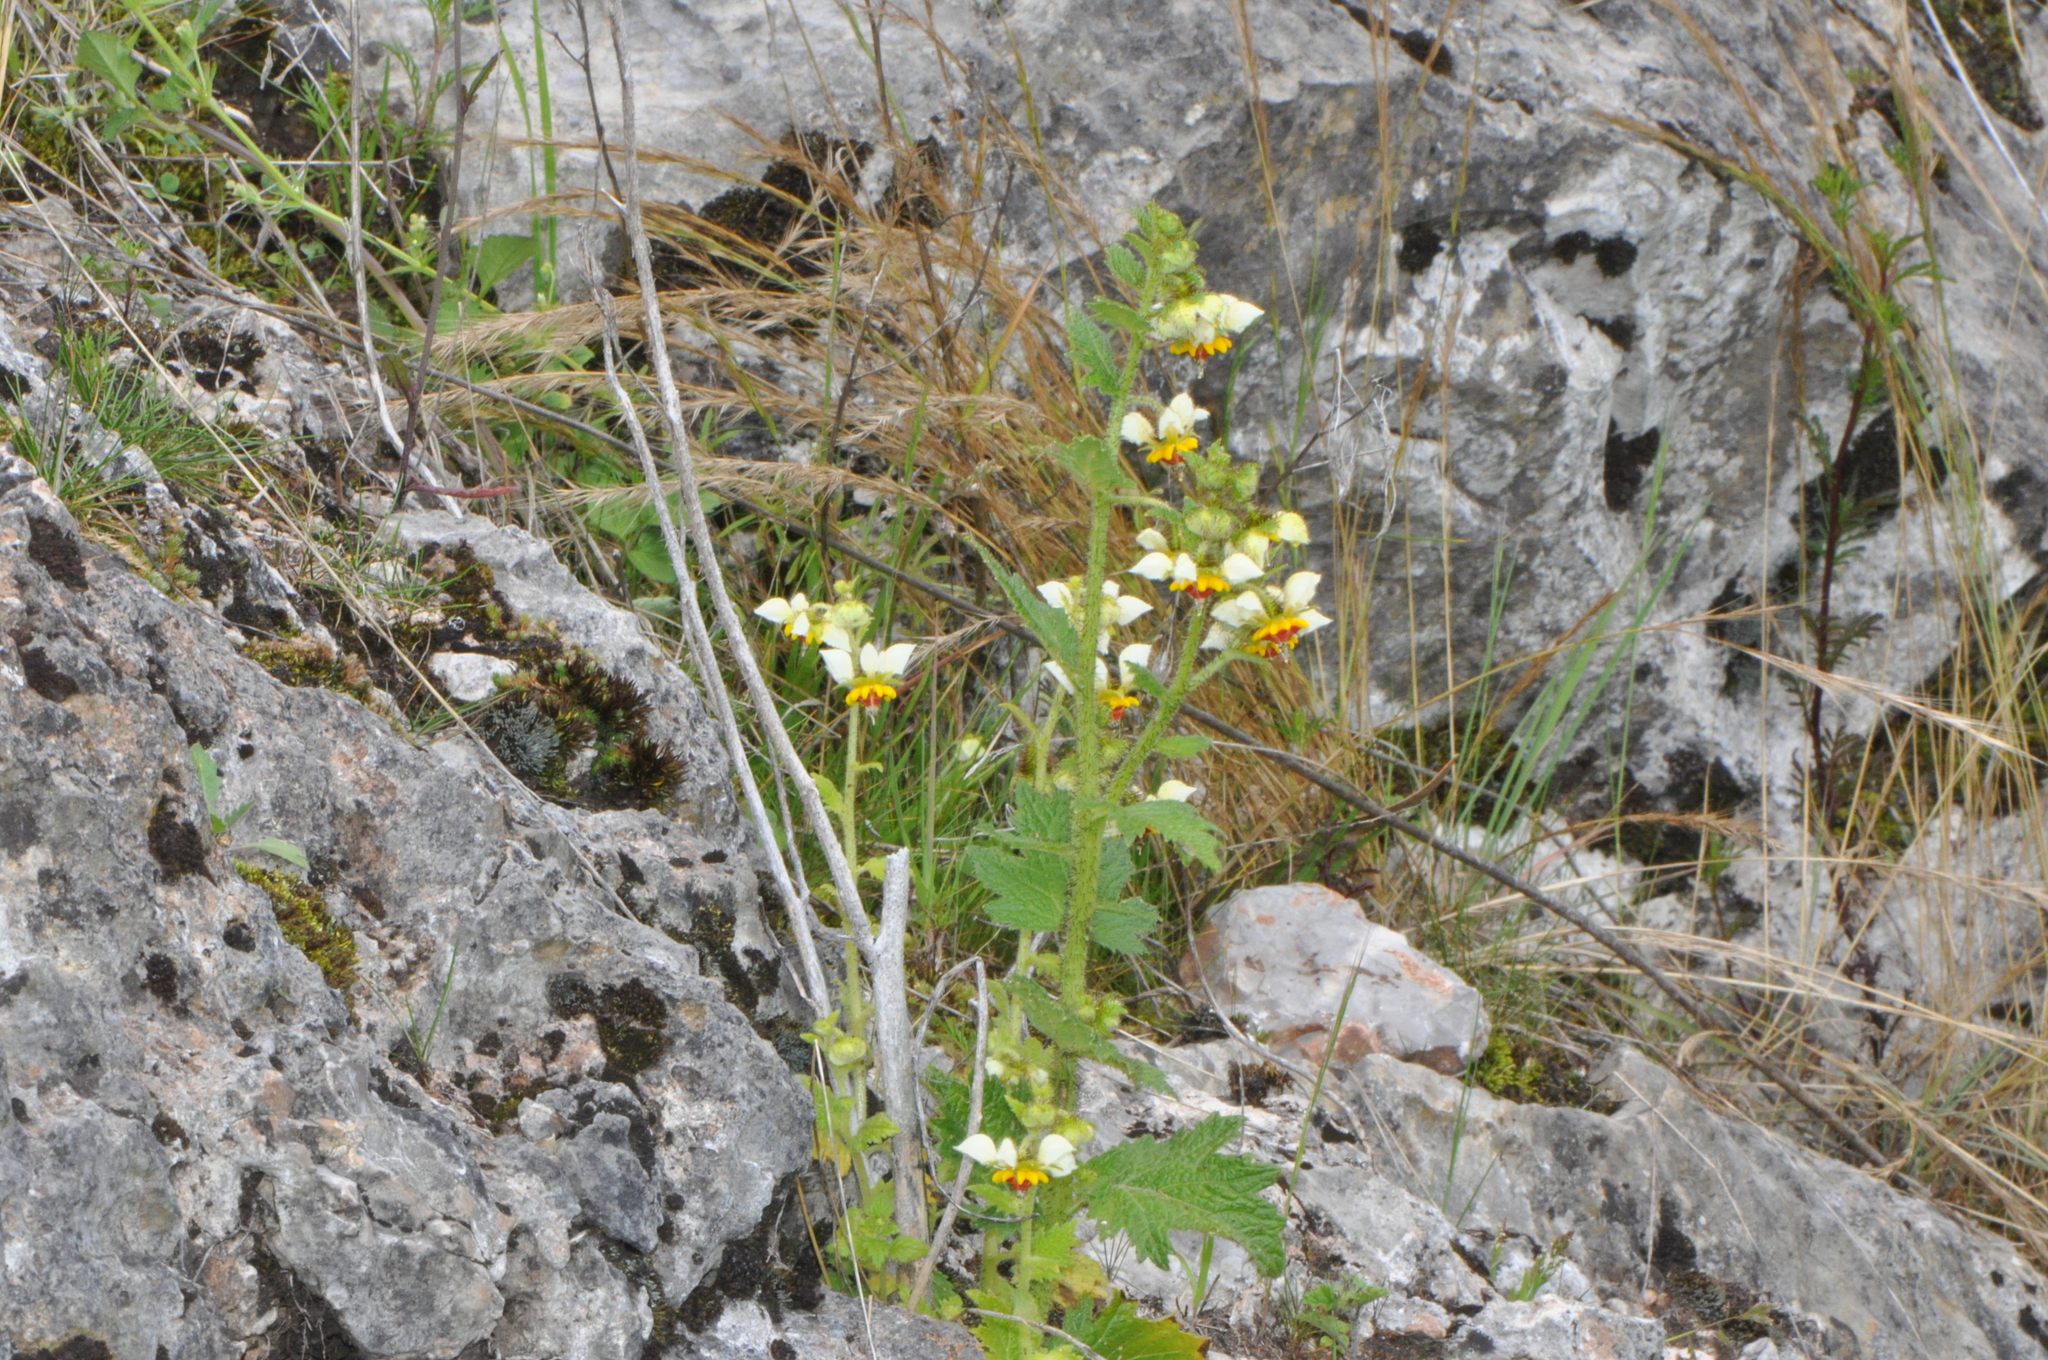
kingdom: Plantae
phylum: Tracheophyta
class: Magnoliopsida
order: Cornales
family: Loasaceae
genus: Nasa
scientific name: Nasa poissoniana
